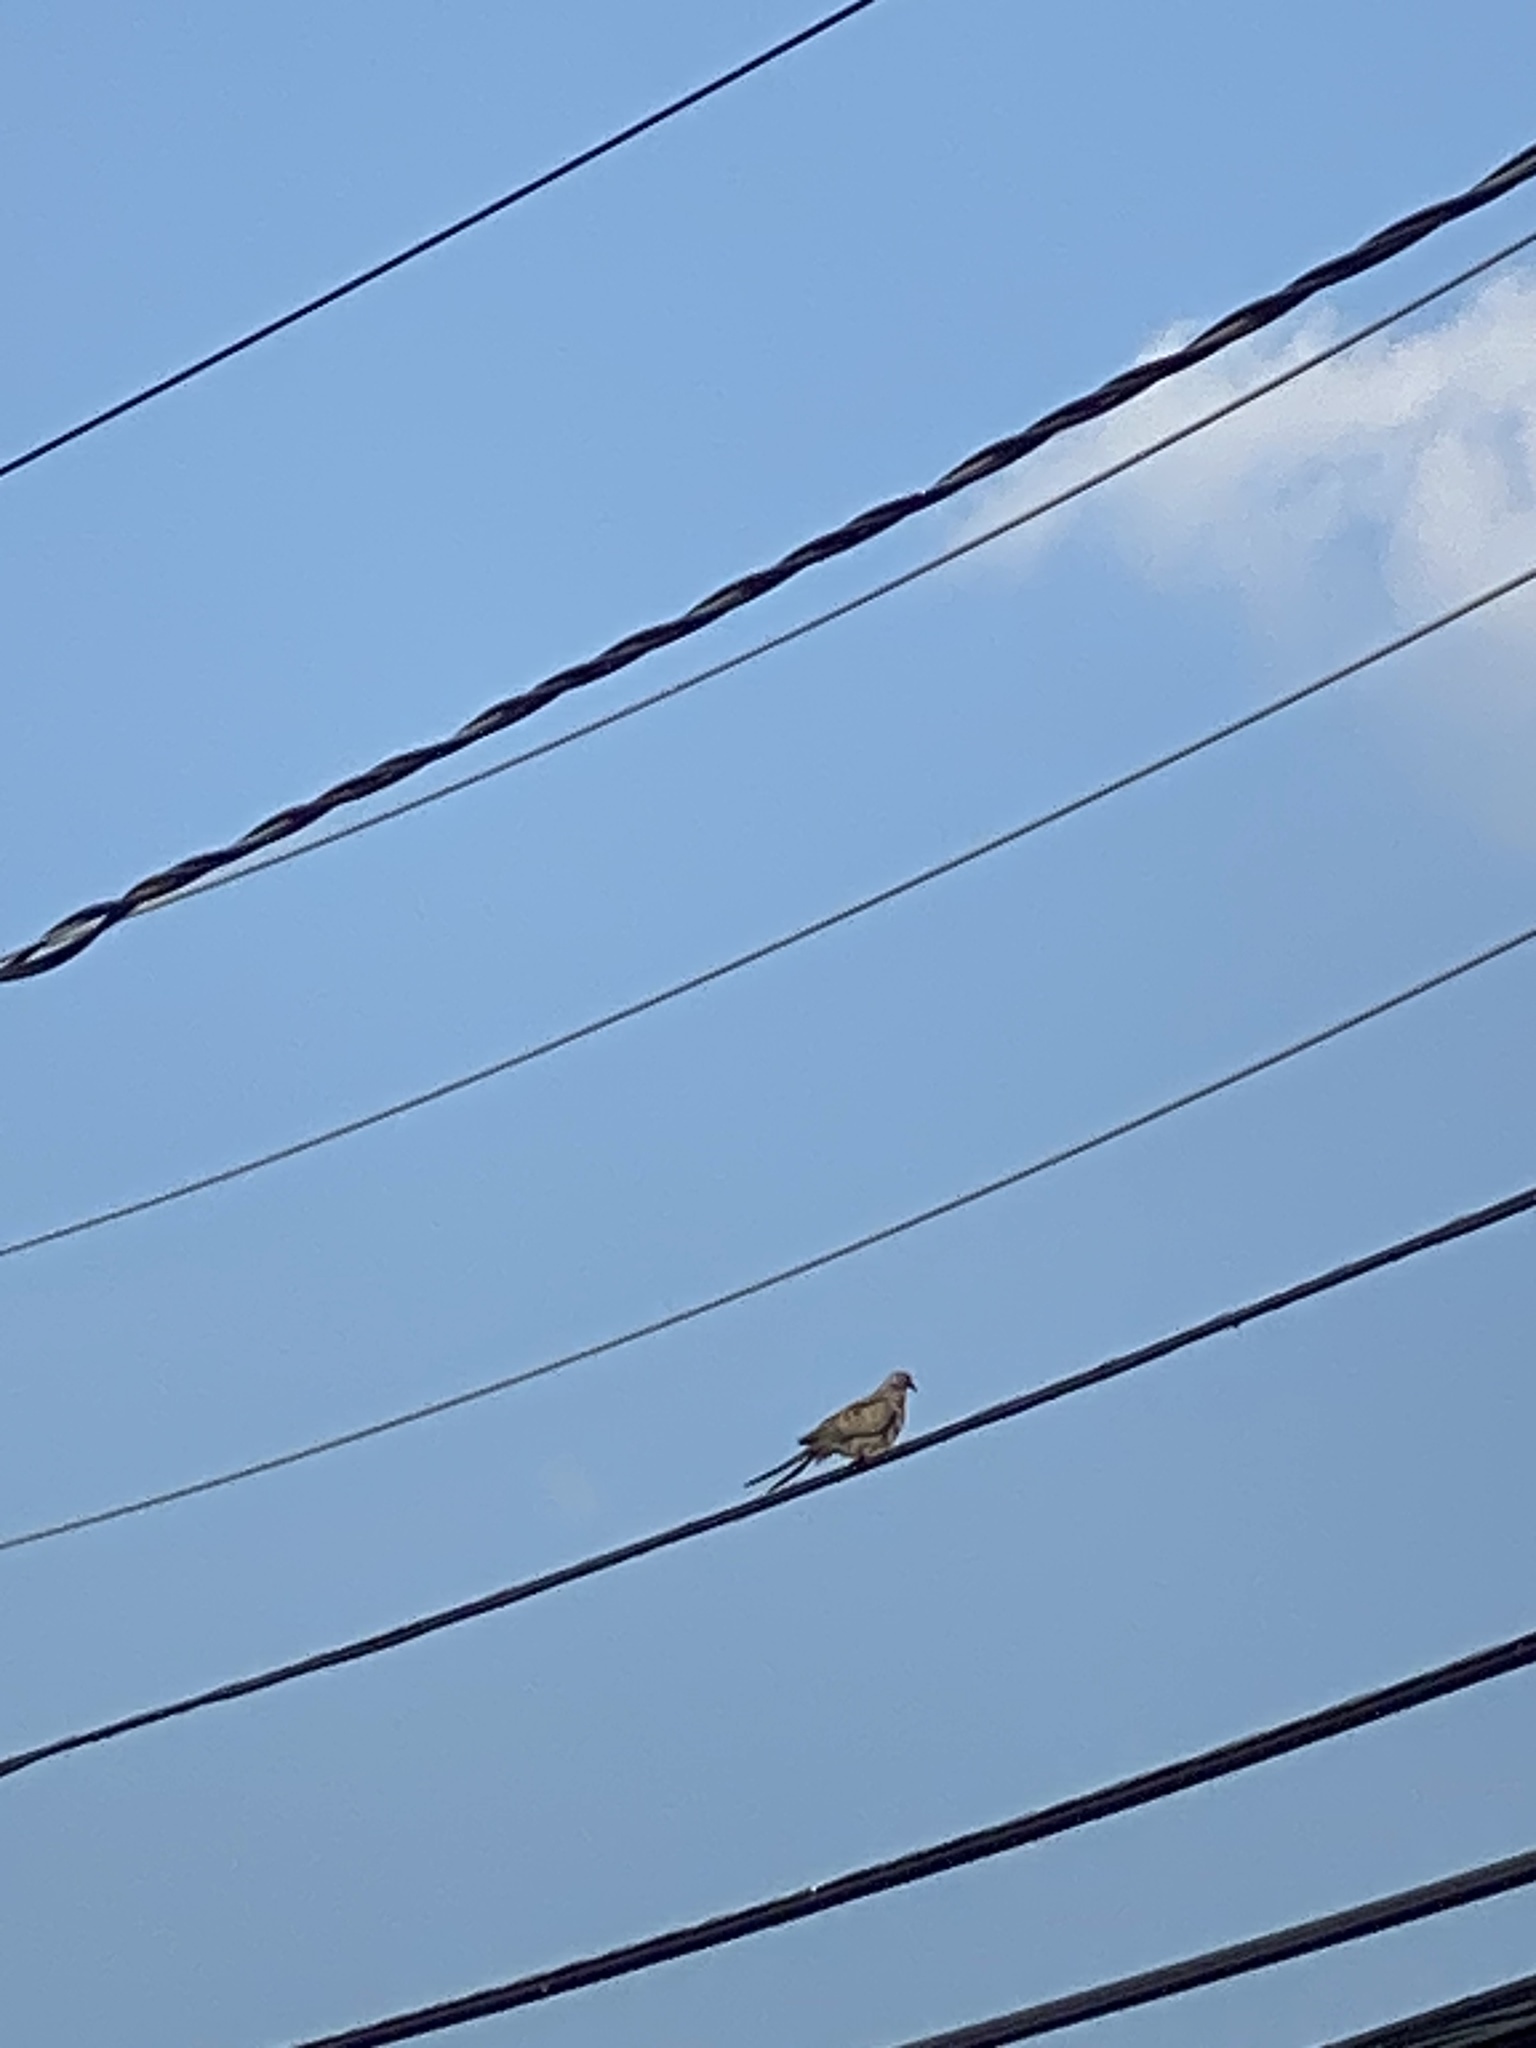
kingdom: Animalia
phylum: Chordata
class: Aves
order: Columbiformes
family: Columbidae
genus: Zenaida
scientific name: Zenaida macroura
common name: Mourning dove
